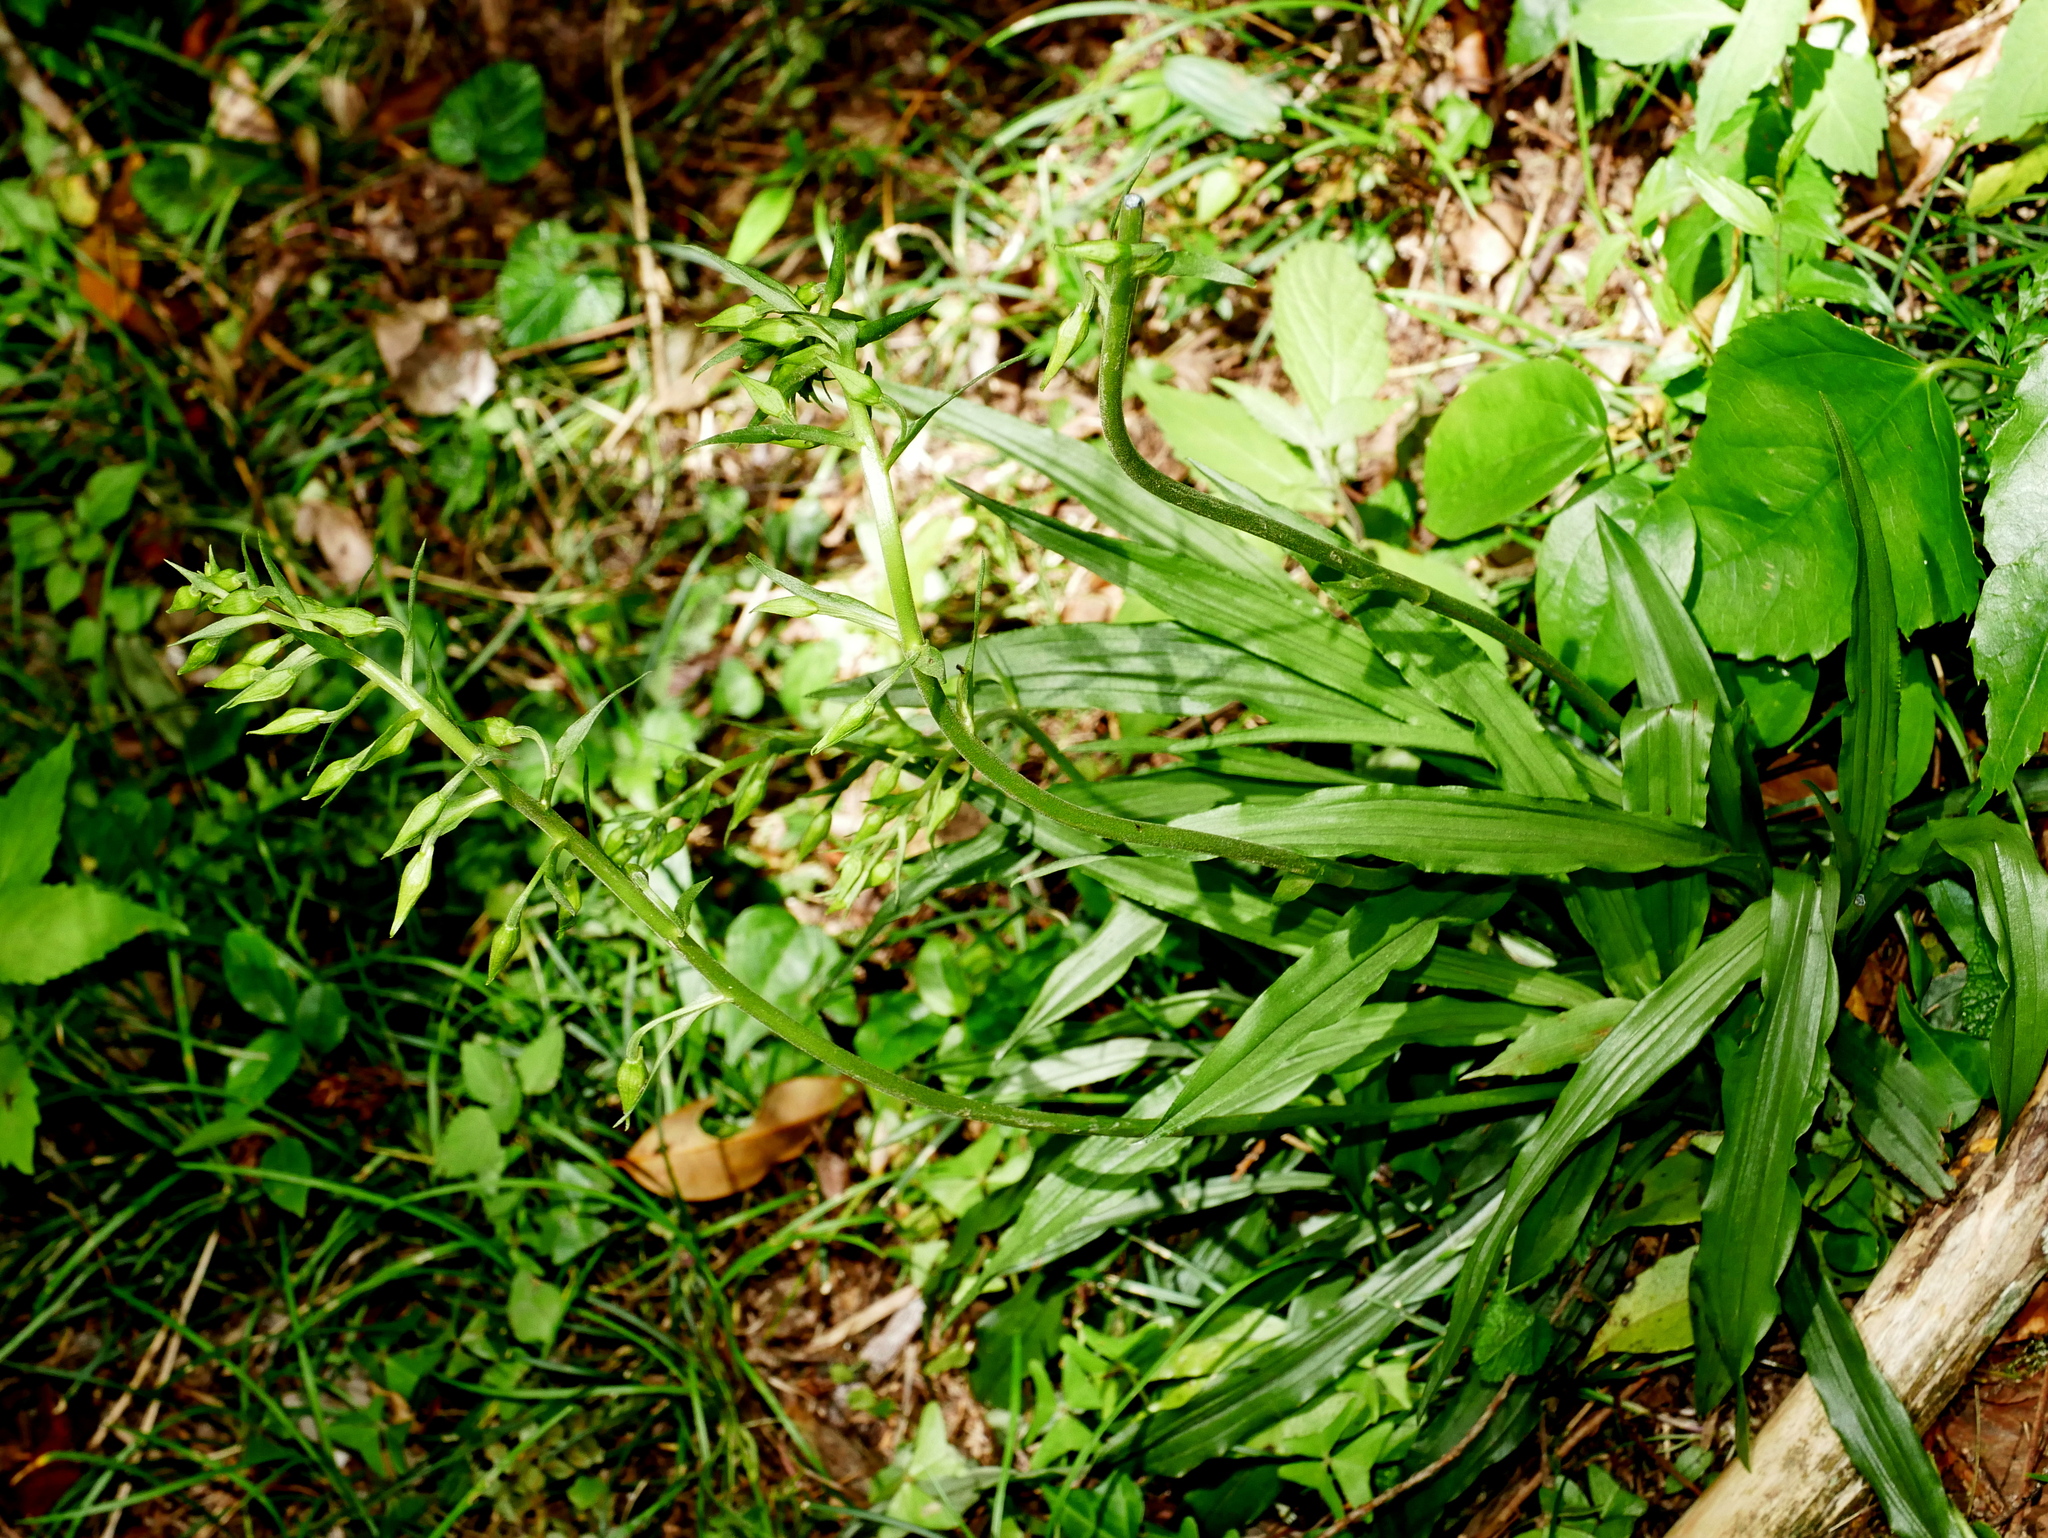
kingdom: Plantae
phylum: Tracheophyta
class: Liliopsida
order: Asparagales
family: Orchidaceae
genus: Calanthe
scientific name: Calanthe arcuata
